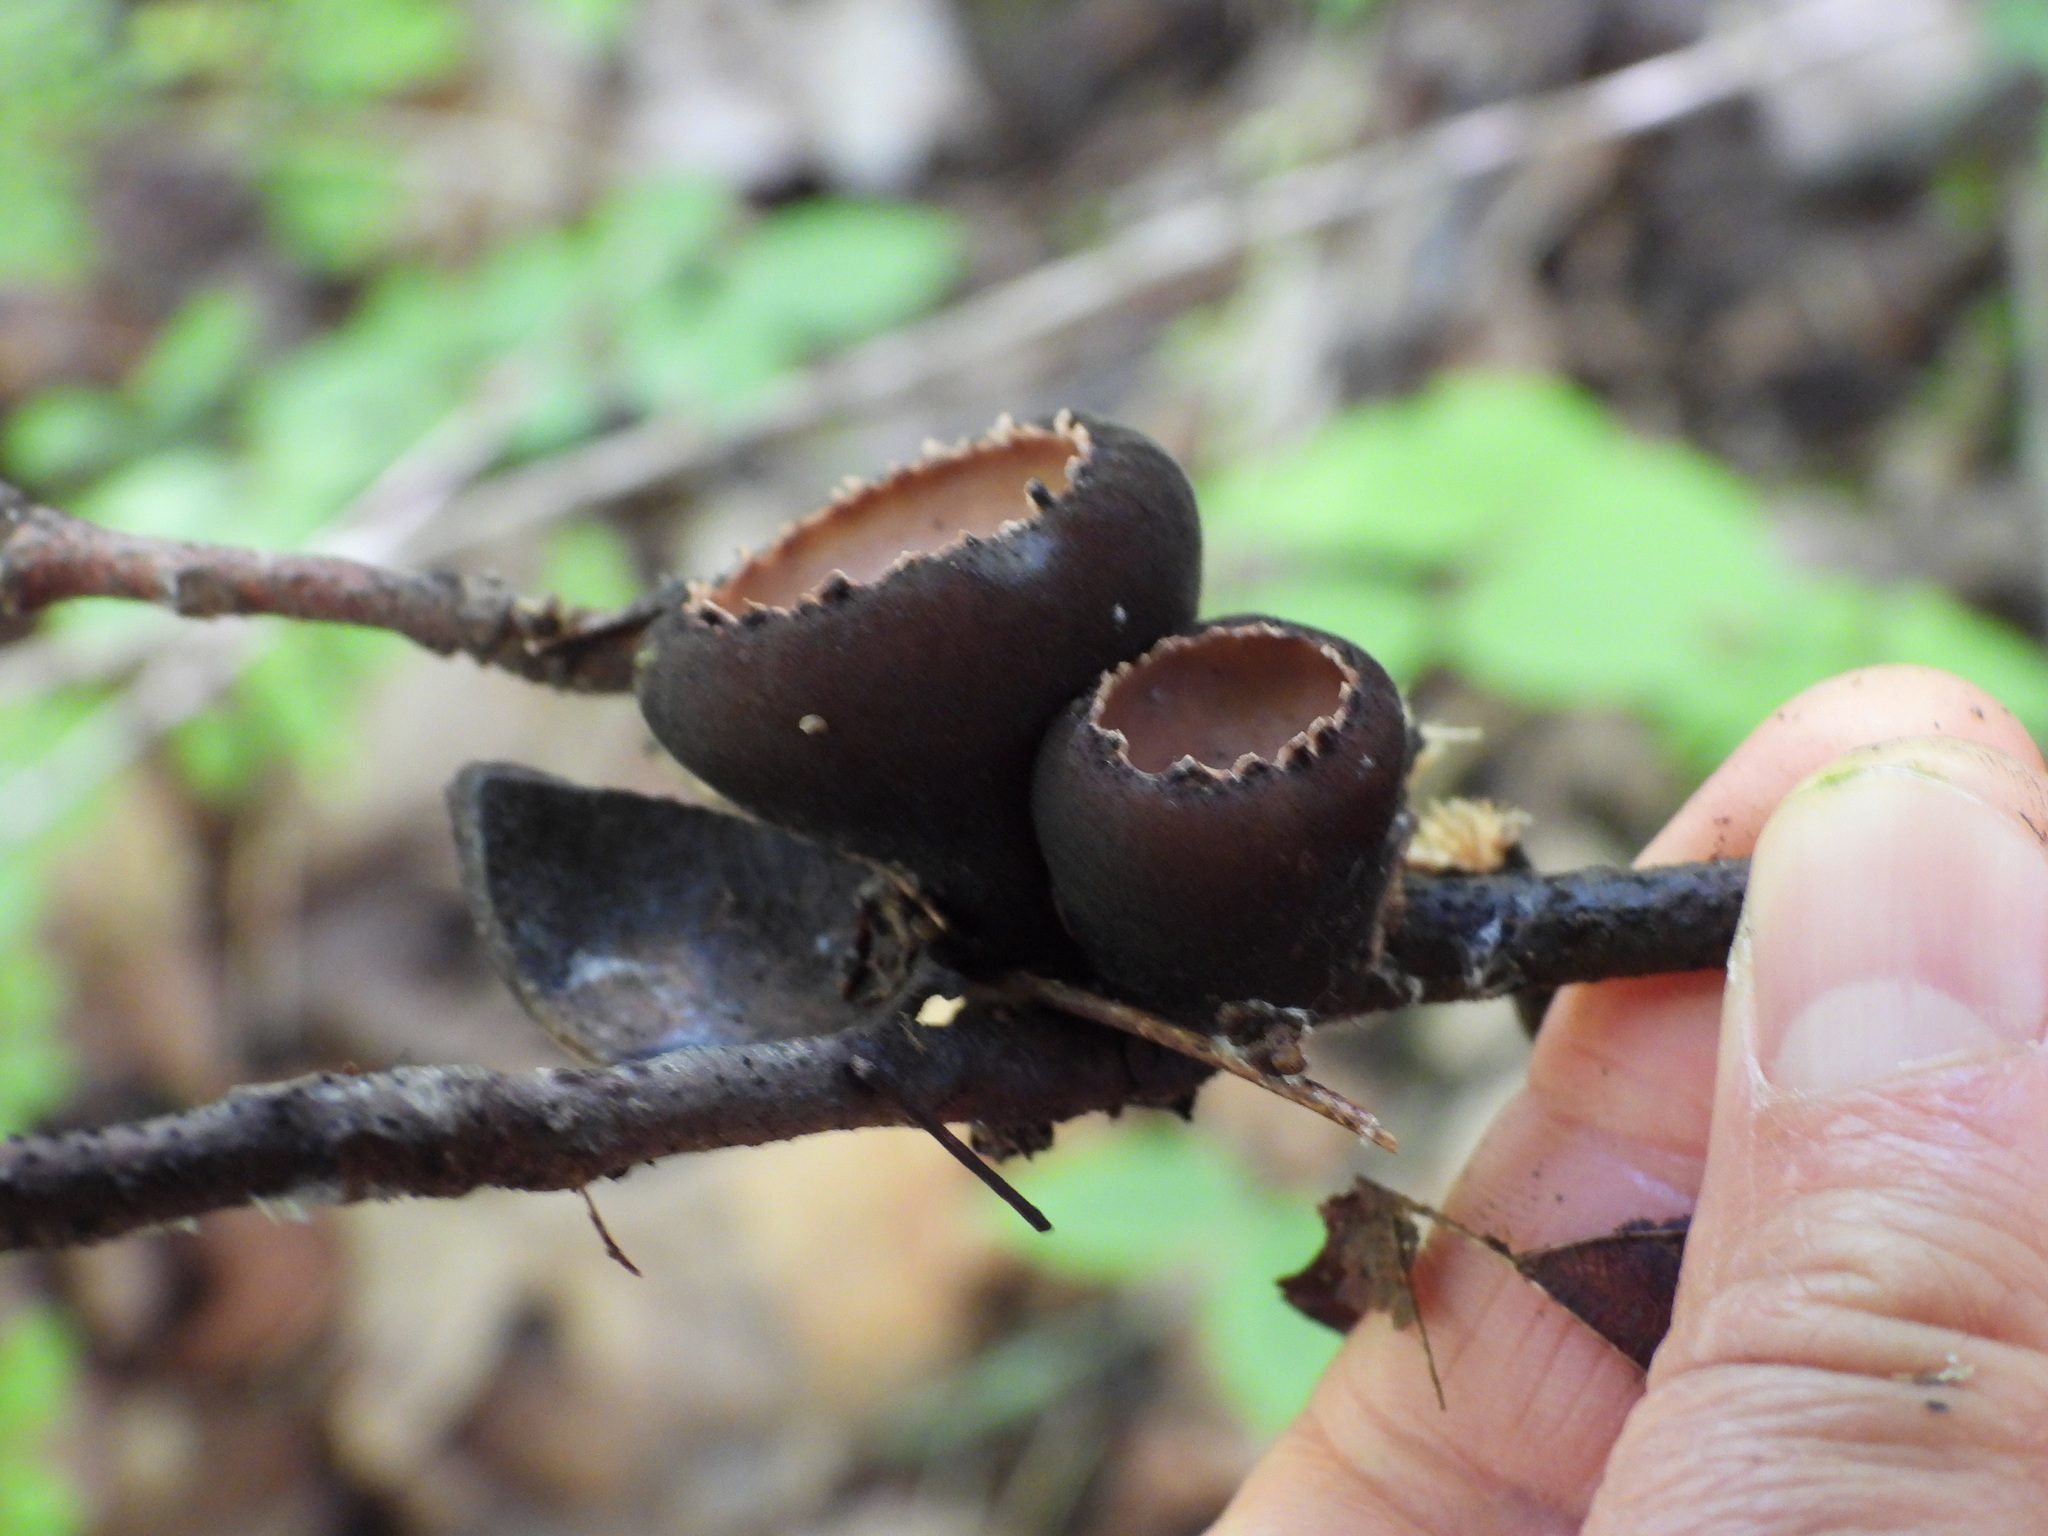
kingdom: Fungi
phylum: Ascomycota
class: Pezizomycetes
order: Pezizales
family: Sarcosomataceae
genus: Galiella
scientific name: Galiella rufa
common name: Hairy rubber cup
